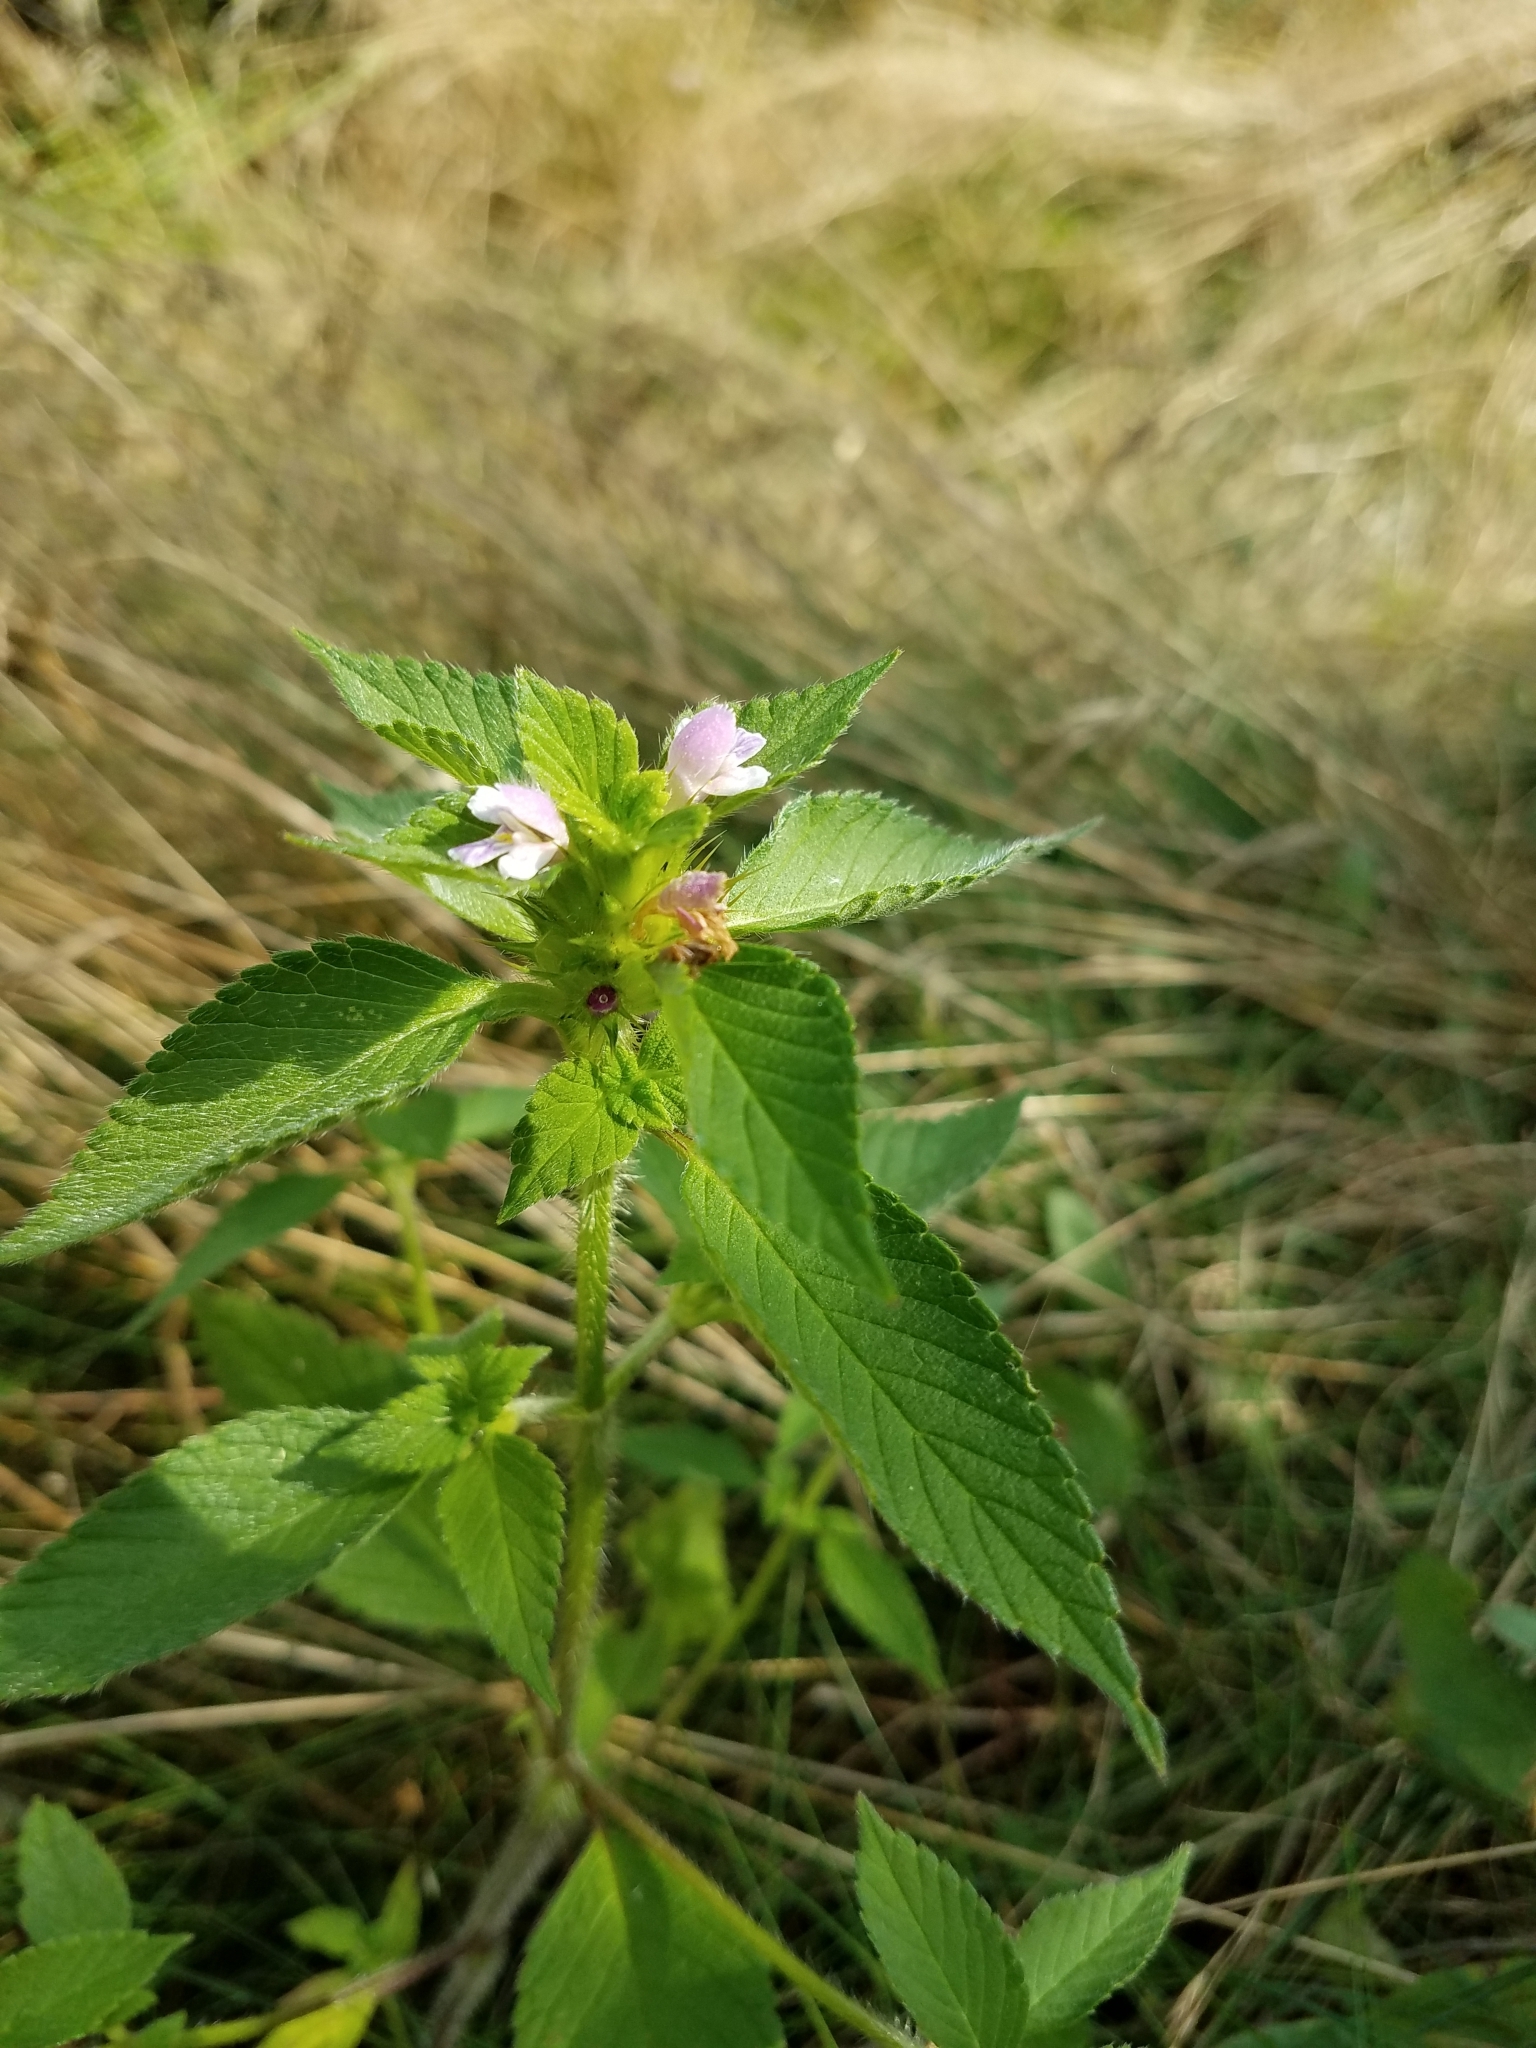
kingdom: Plantae
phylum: Tracheophyta
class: Magnoliopsida
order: Lamiales
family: Lamiaceae
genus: Galeopsis
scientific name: Galeopsis tetrahit
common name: Common hemp-nettle
